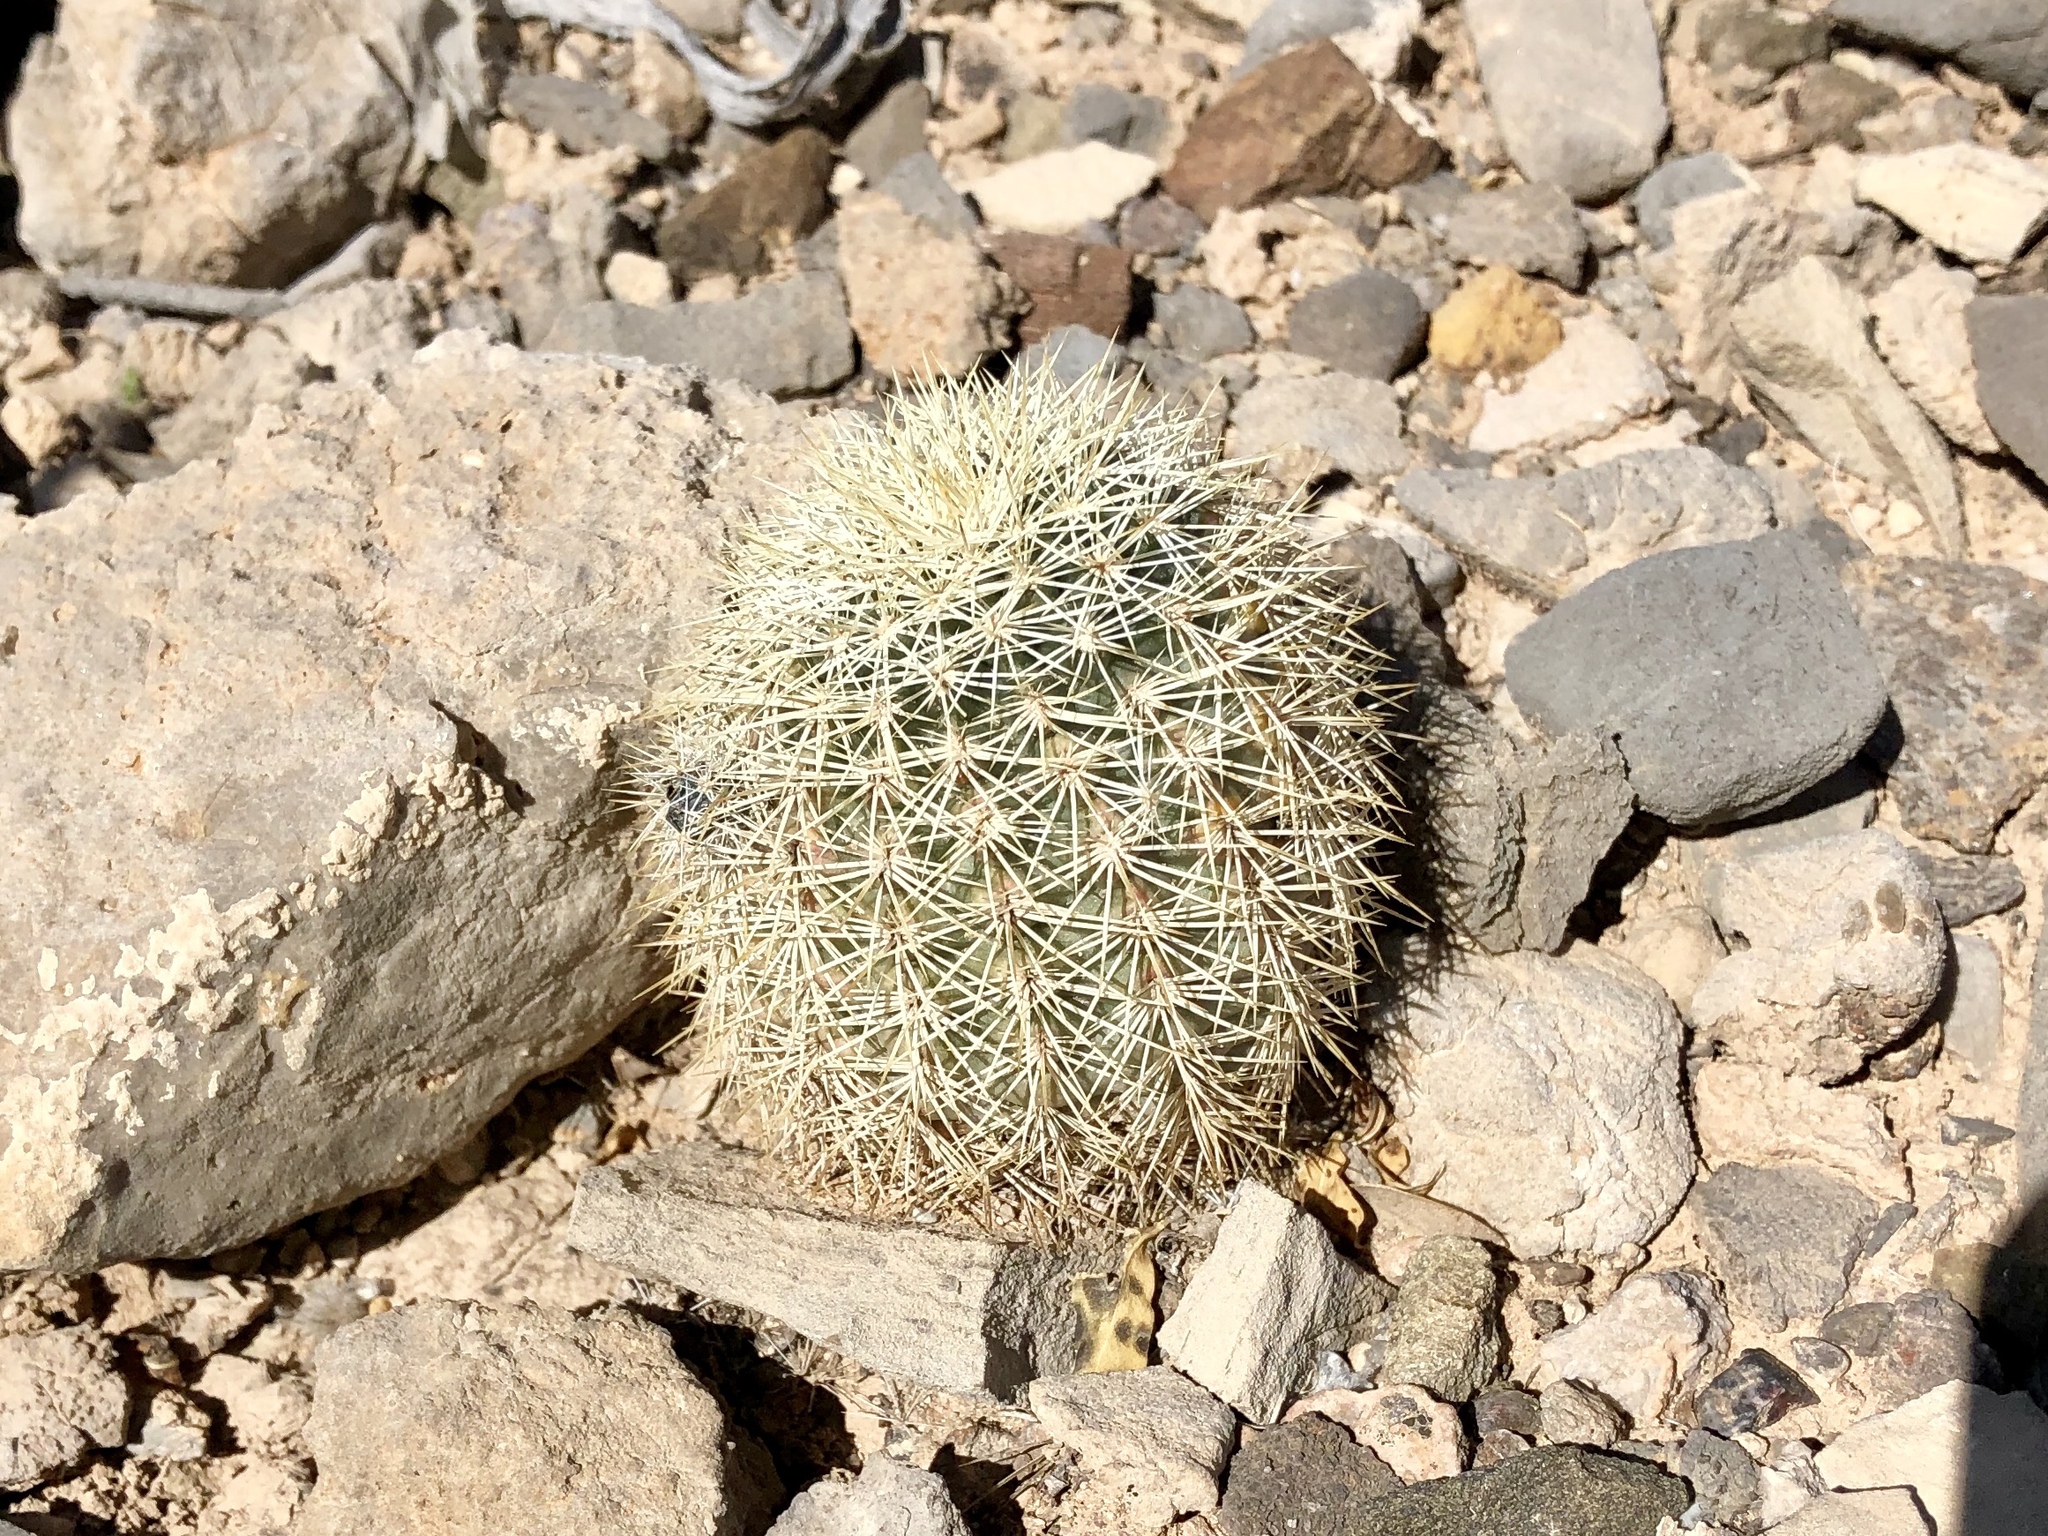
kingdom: Plantae
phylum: Tracheophyta
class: Magnoliopsida
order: Caryophyllales
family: Cactaceae
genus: Echinocereus
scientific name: Echinocereus dasyacanthus
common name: Spiny hedgehog cactus
